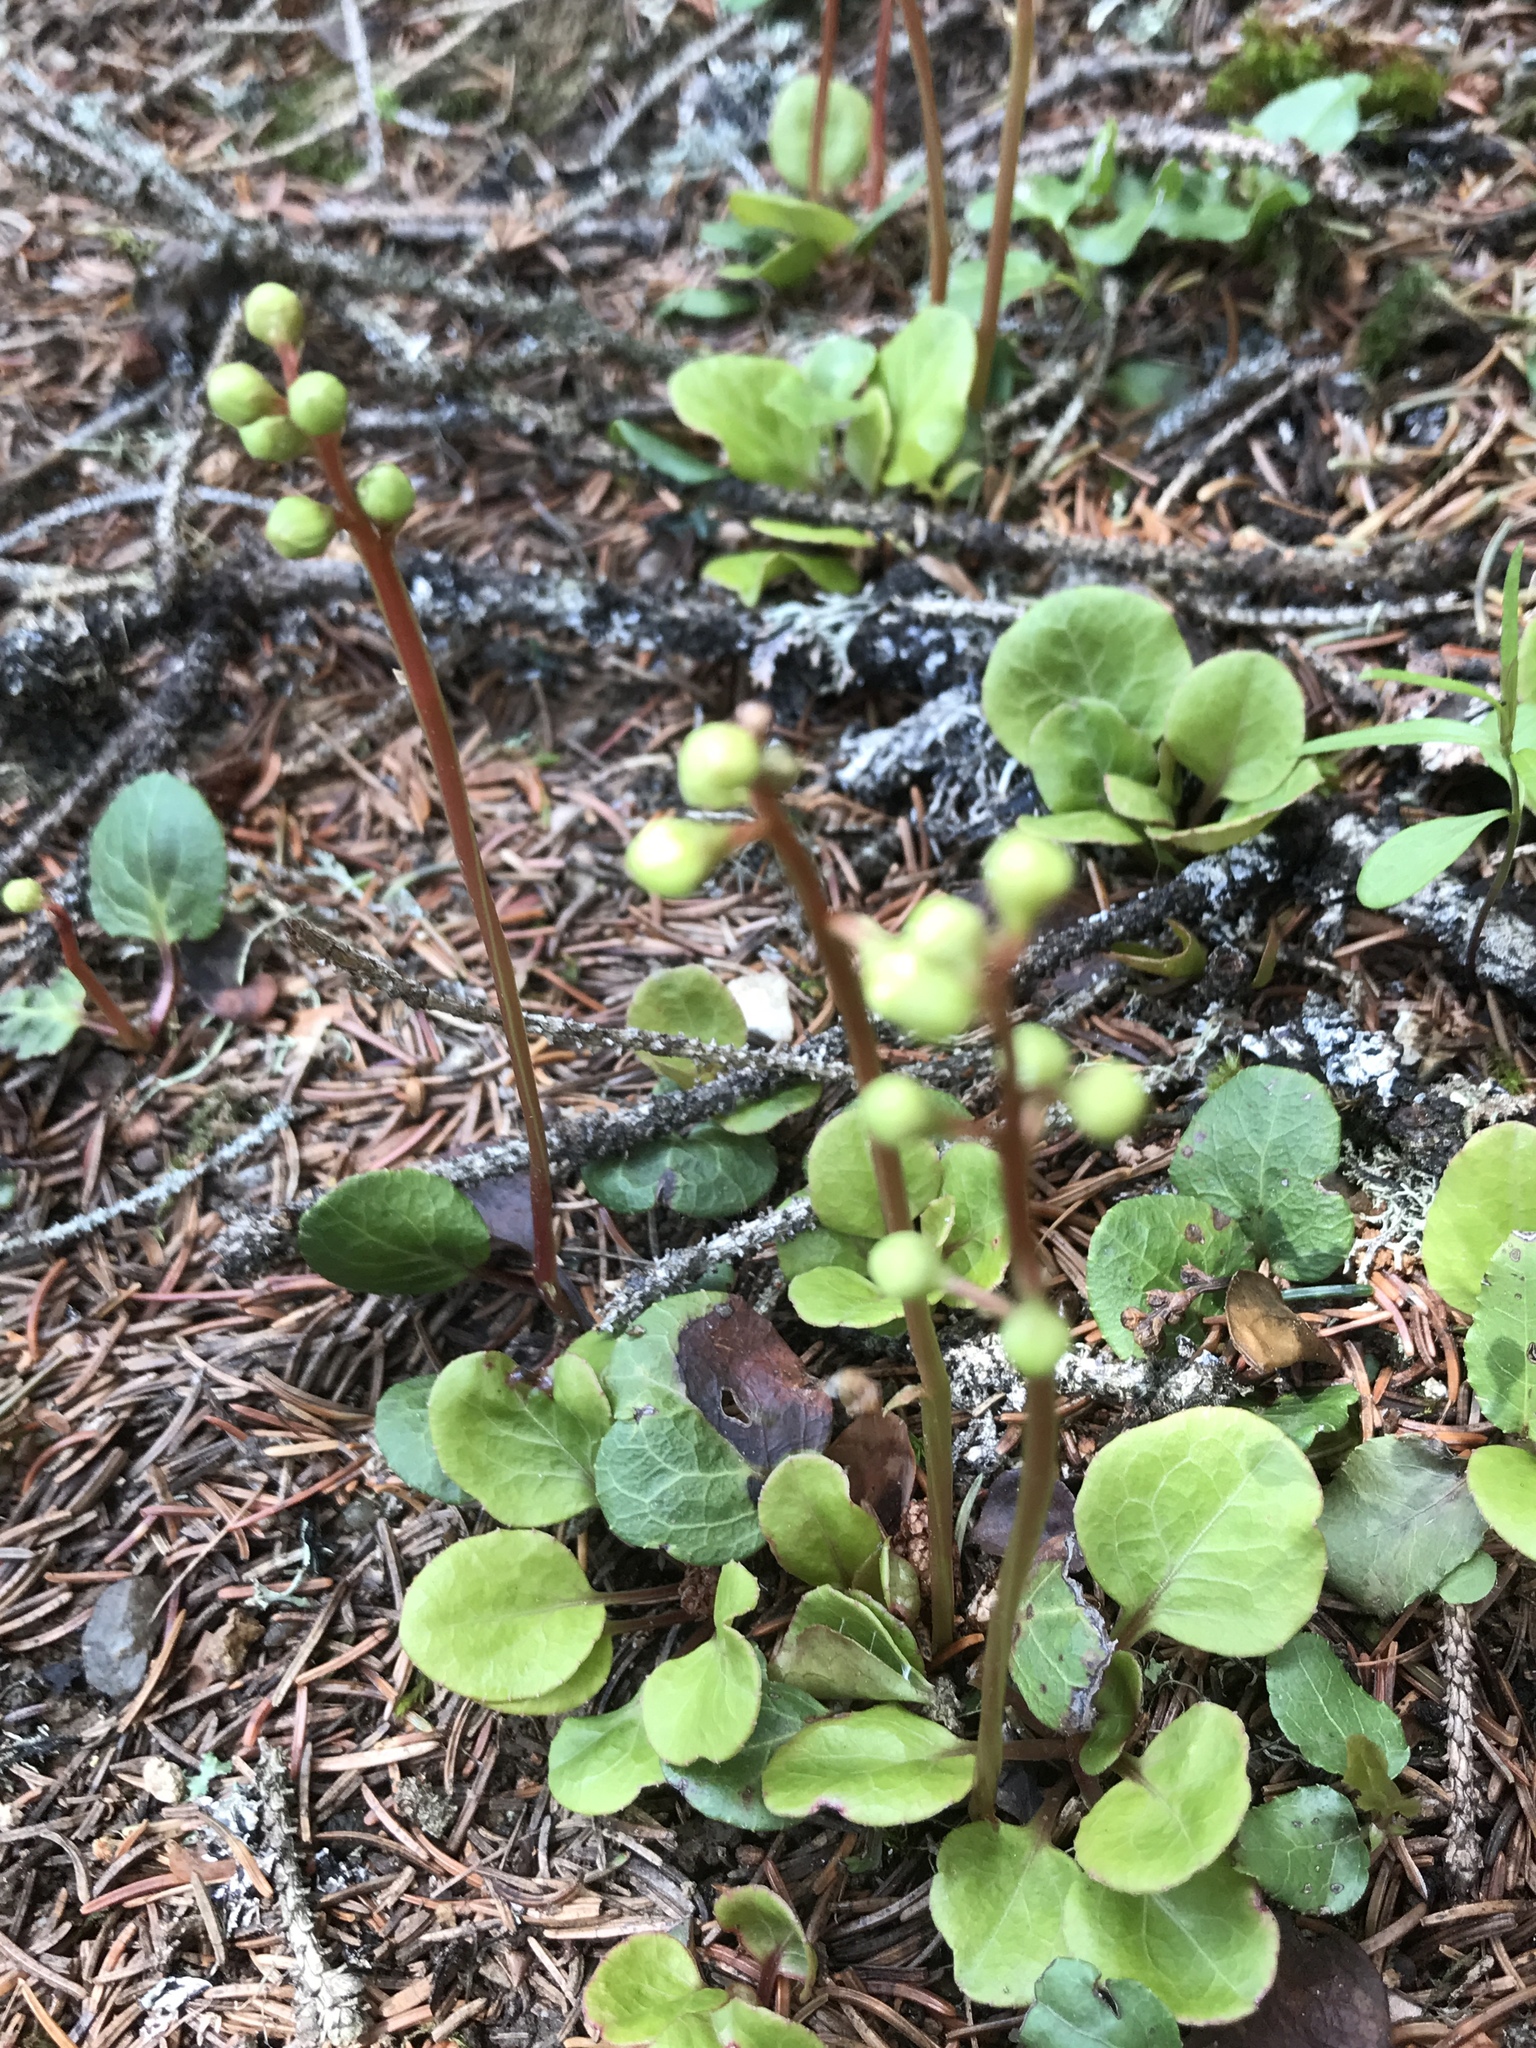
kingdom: Plantae
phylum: Tracheophyta
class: Magnoliopsida
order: Ericales
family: Ericaceae
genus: Pyrola
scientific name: Pyrola chlorantha
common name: Green wintergreen
